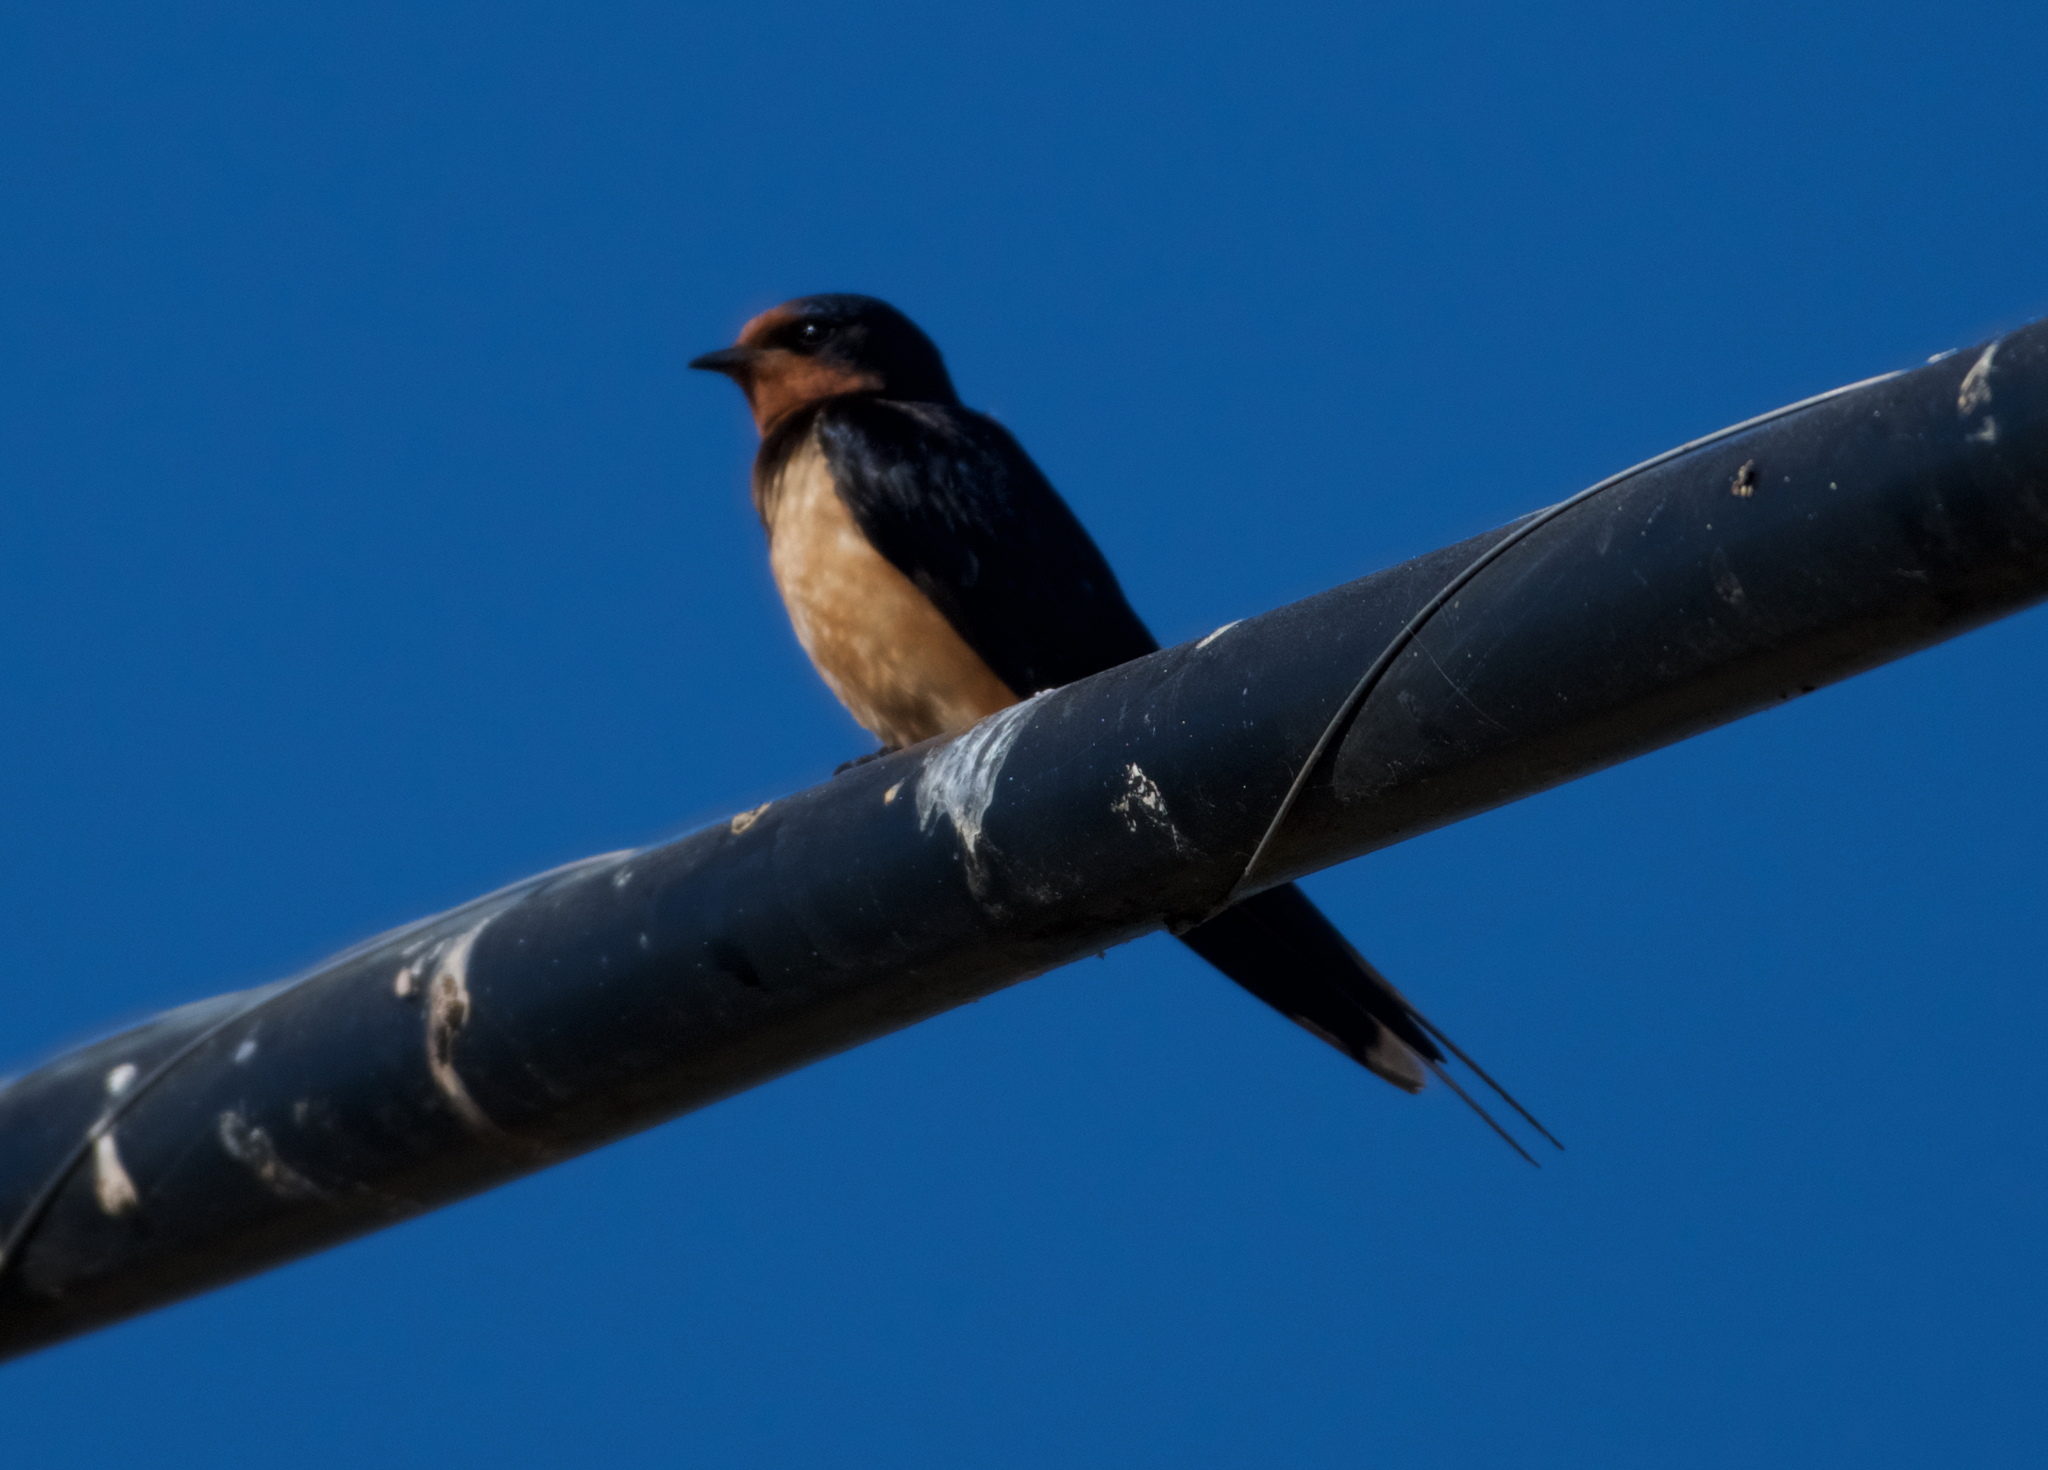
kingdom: Animalia
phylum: Chordata
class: Aves
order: Passeriformes
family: Hirundinidae
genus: Hirundo
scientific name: Hirundo rustica
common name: Barn swallow
